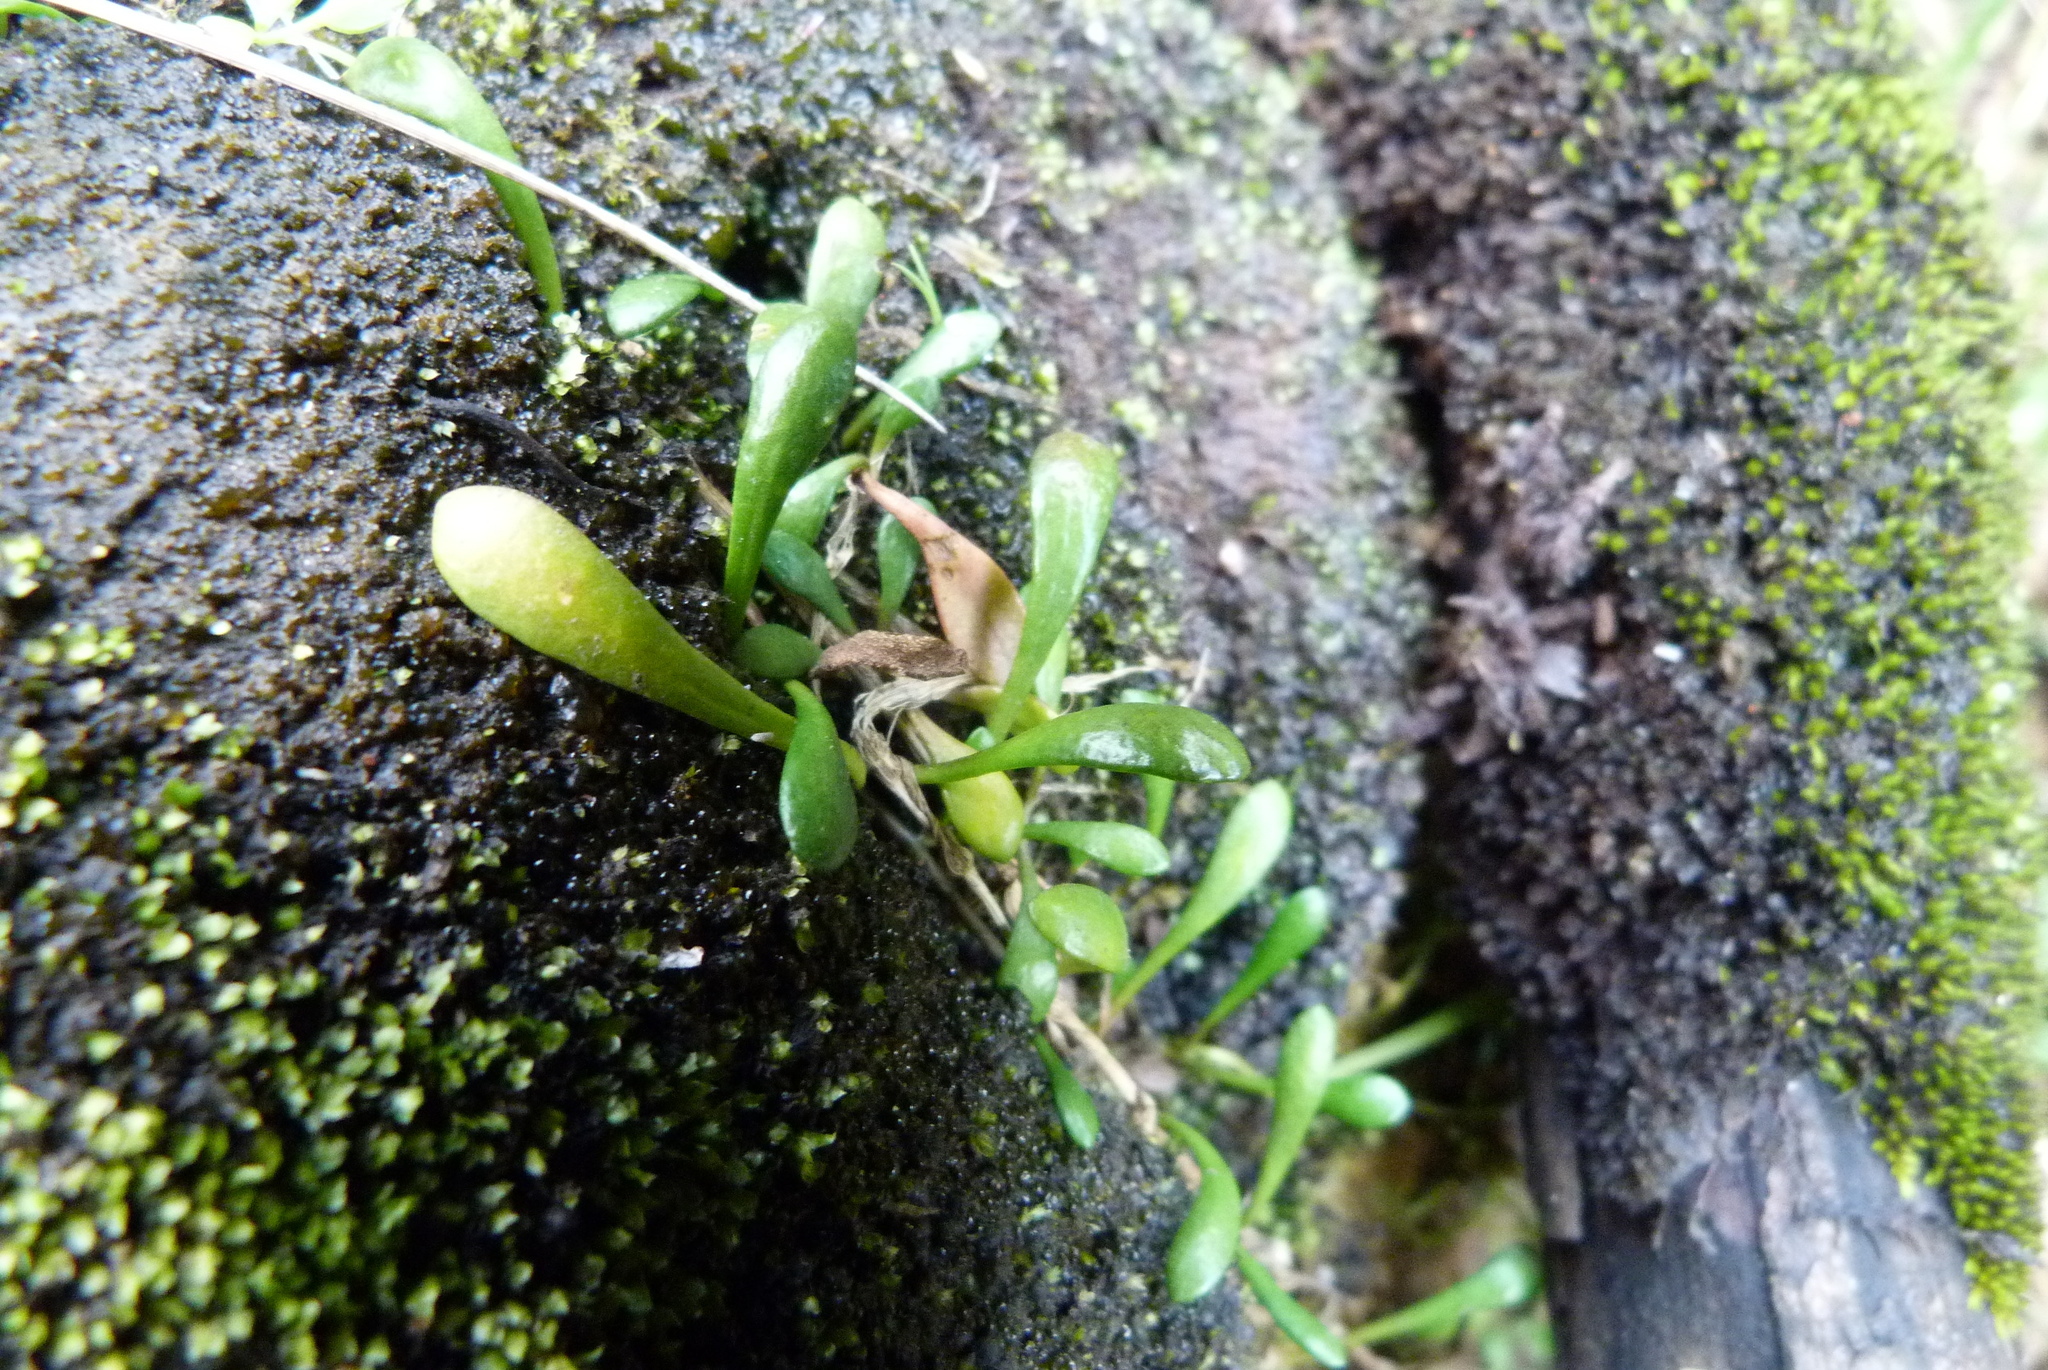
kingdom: Plantae
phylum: Tracheophyta
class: Magnoliopsida
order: Asterales
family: Goodeniaceae
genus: Goodenia
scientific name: Goodenia radicans
